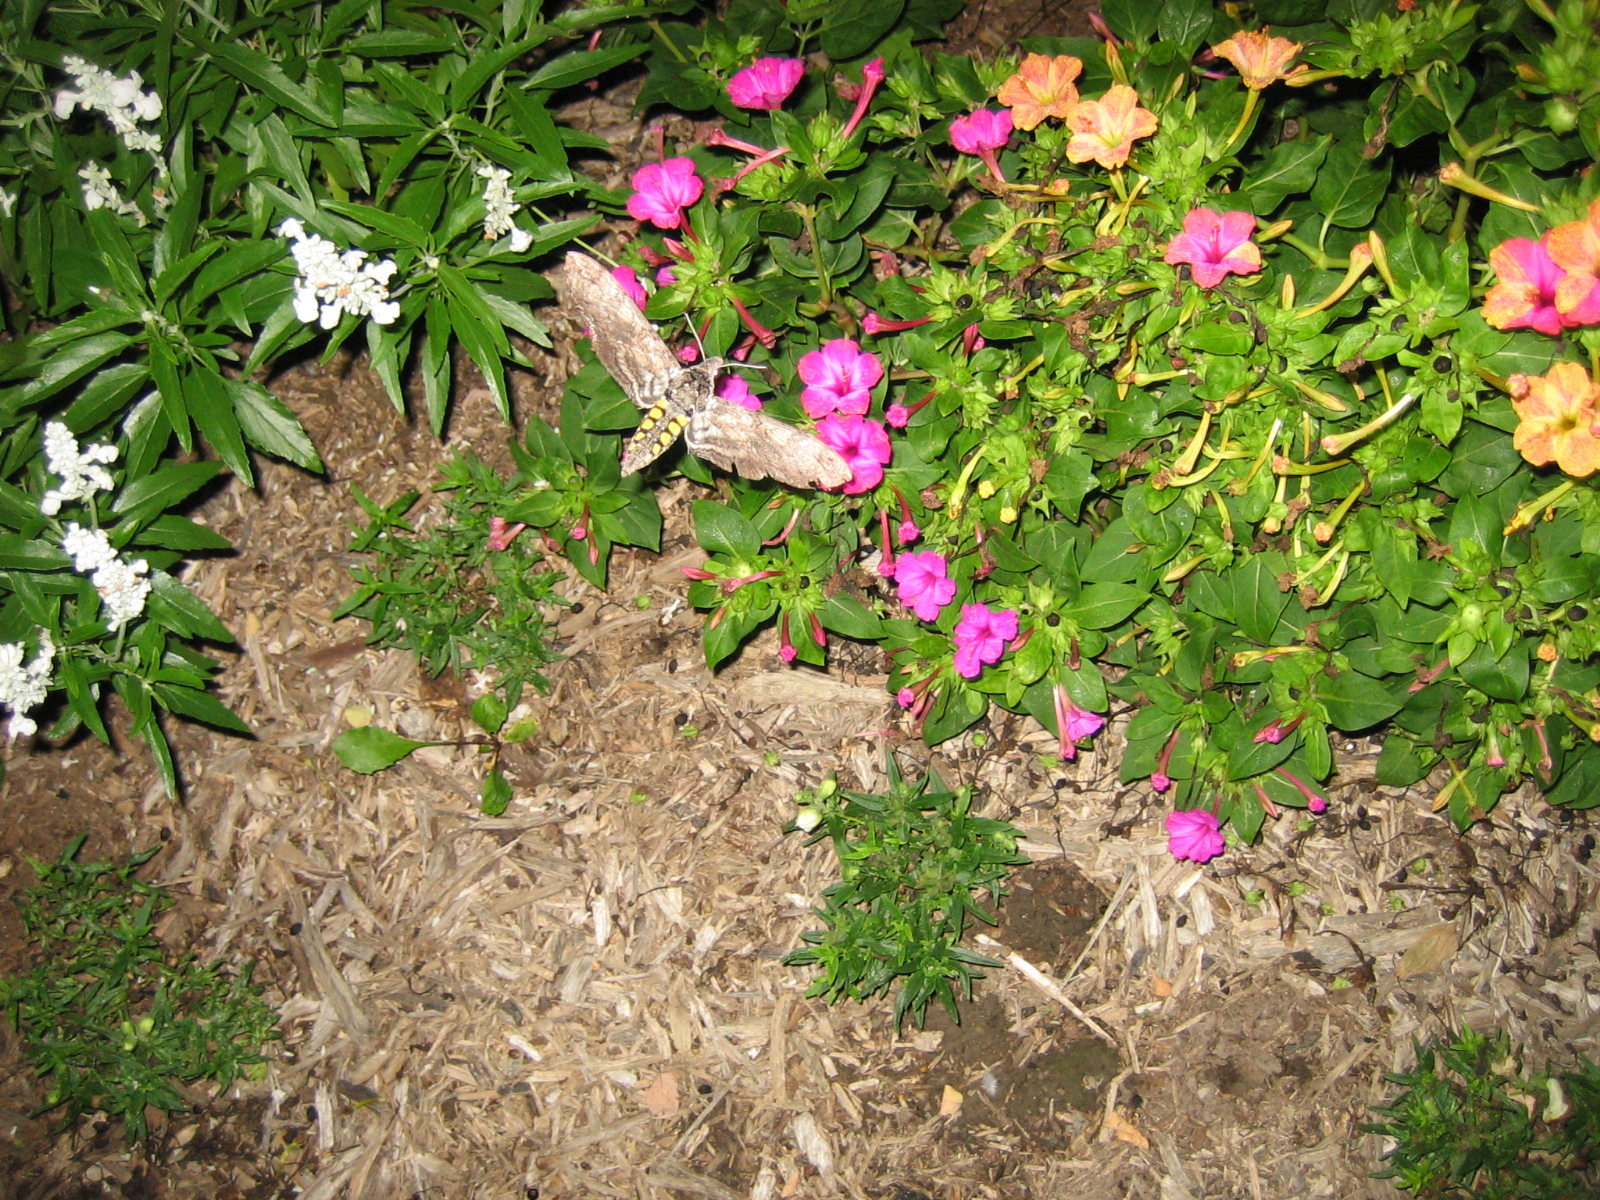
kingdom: Animalia
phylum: Arthropoda
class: Insecta
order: Lepidoptera
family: Sphingidae
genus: Manduca
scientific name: Manduca sexta
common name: Carolina sphinx
